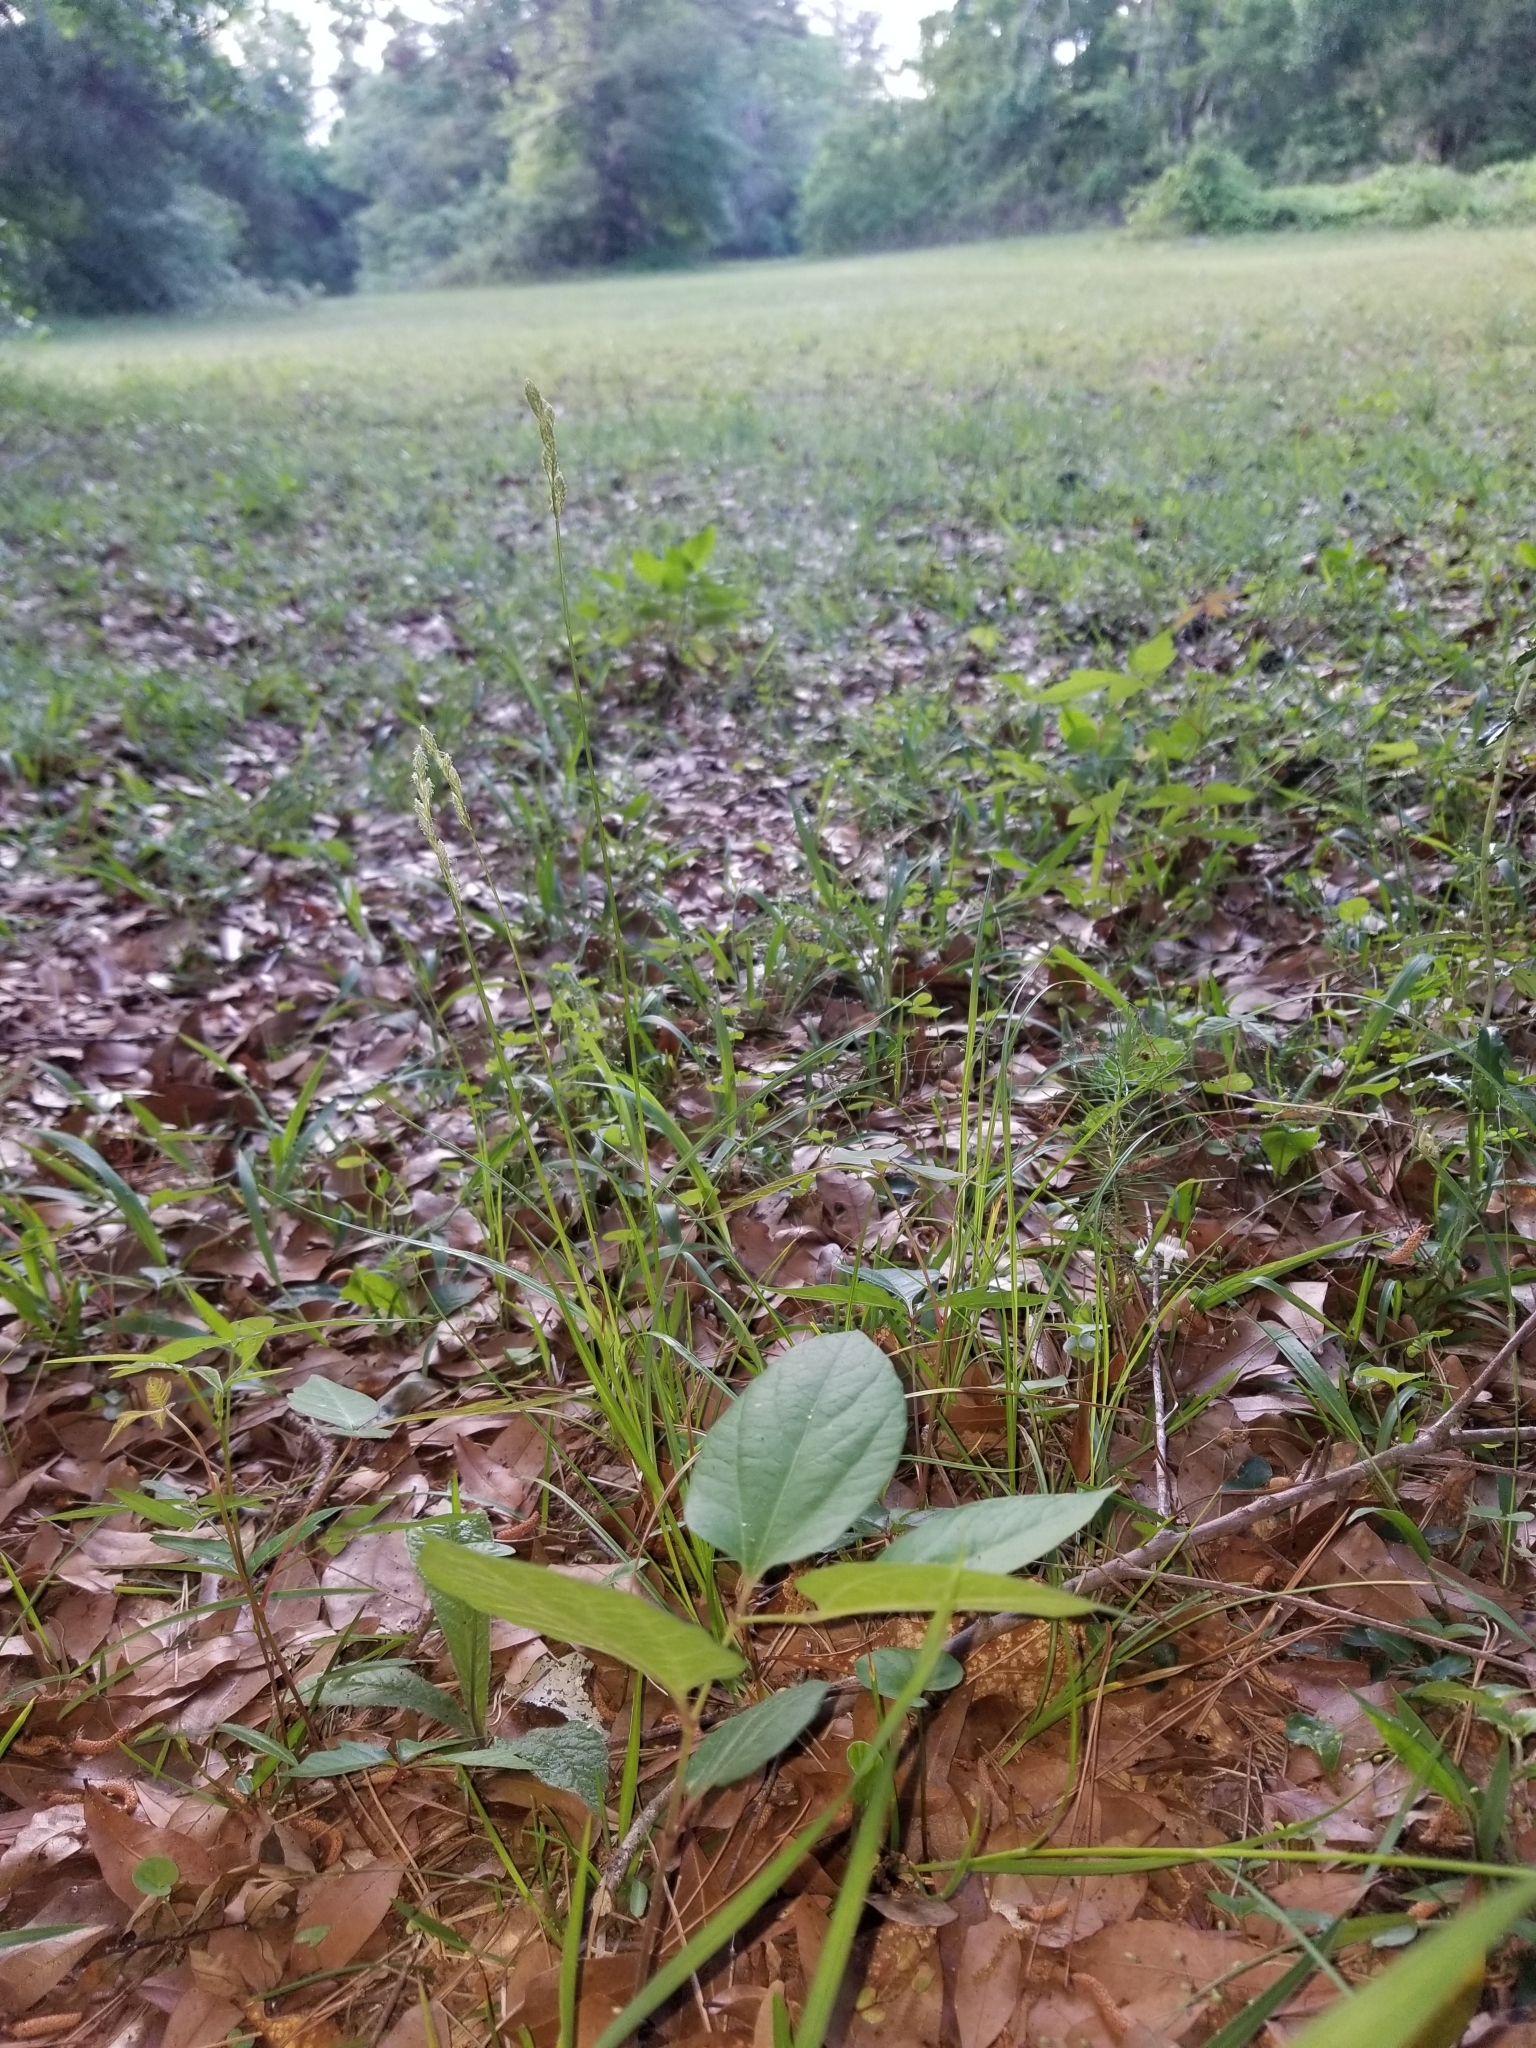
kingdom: Plantae
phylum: Tracheophyta
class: Magnoliopsida
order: Piperales
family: Aristolochiaceae
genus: Endodeca
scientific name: Endodeca serpentaria
